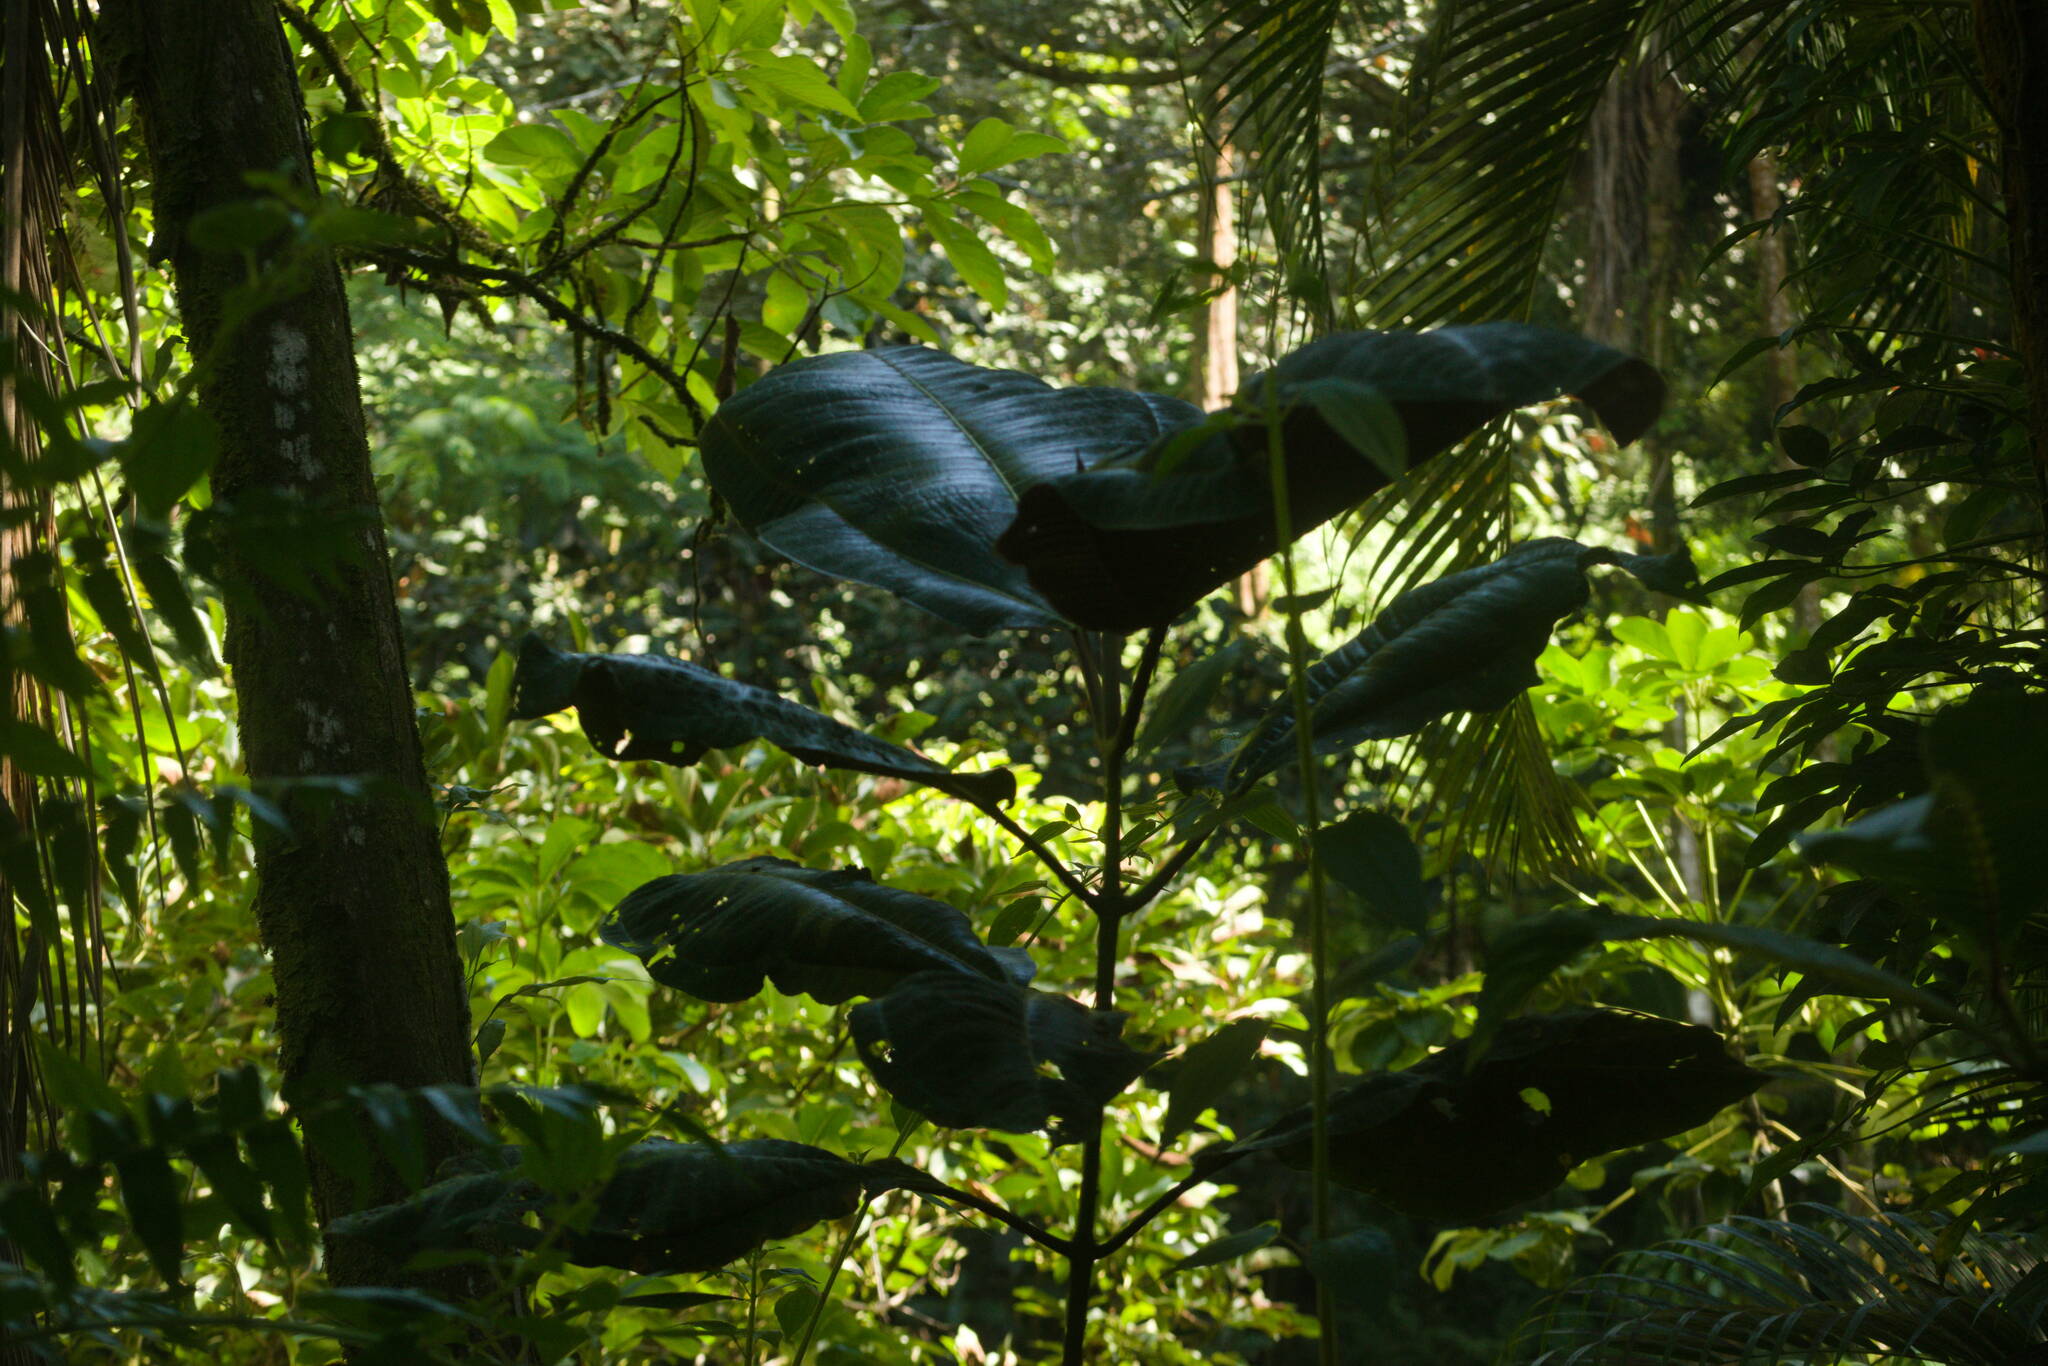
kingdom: Plantae
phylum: Tracheophyta
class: Magnoliopsida
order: Myrtales
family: Melastomataceae
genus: Miconia
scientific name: Miconia calvescens
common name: Purple plague
